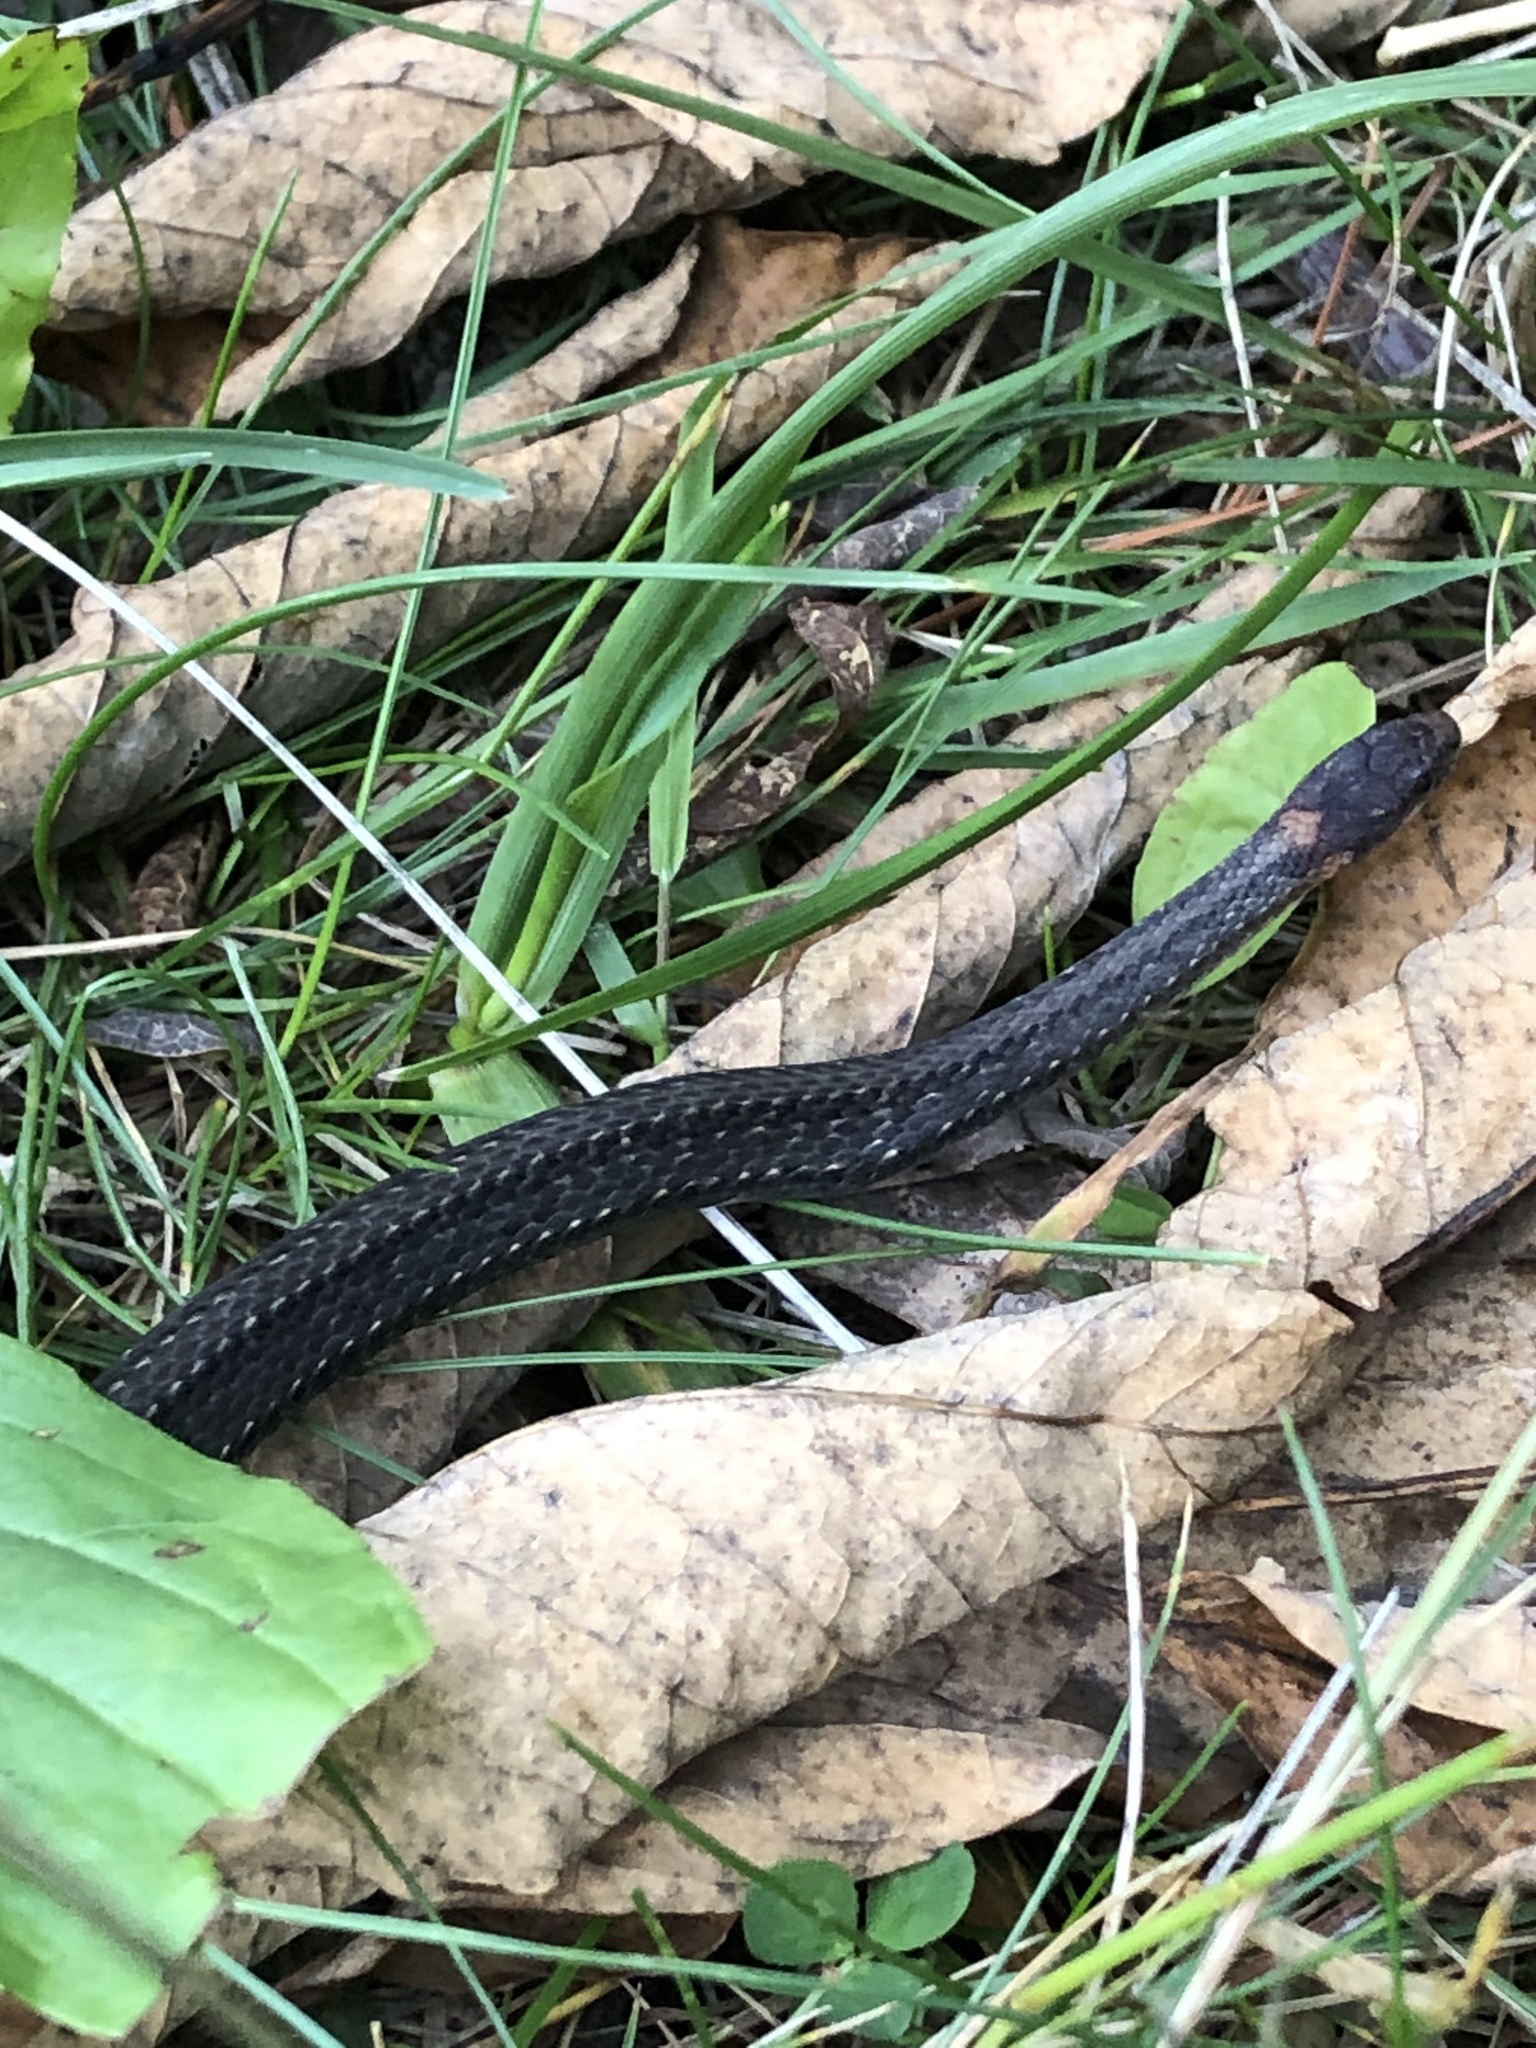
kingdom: Animalia
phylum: Chordata
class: Squamata
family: Colubridae
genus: Storeria
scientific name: Storeria occipitomaculata
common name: Redbelly snake
